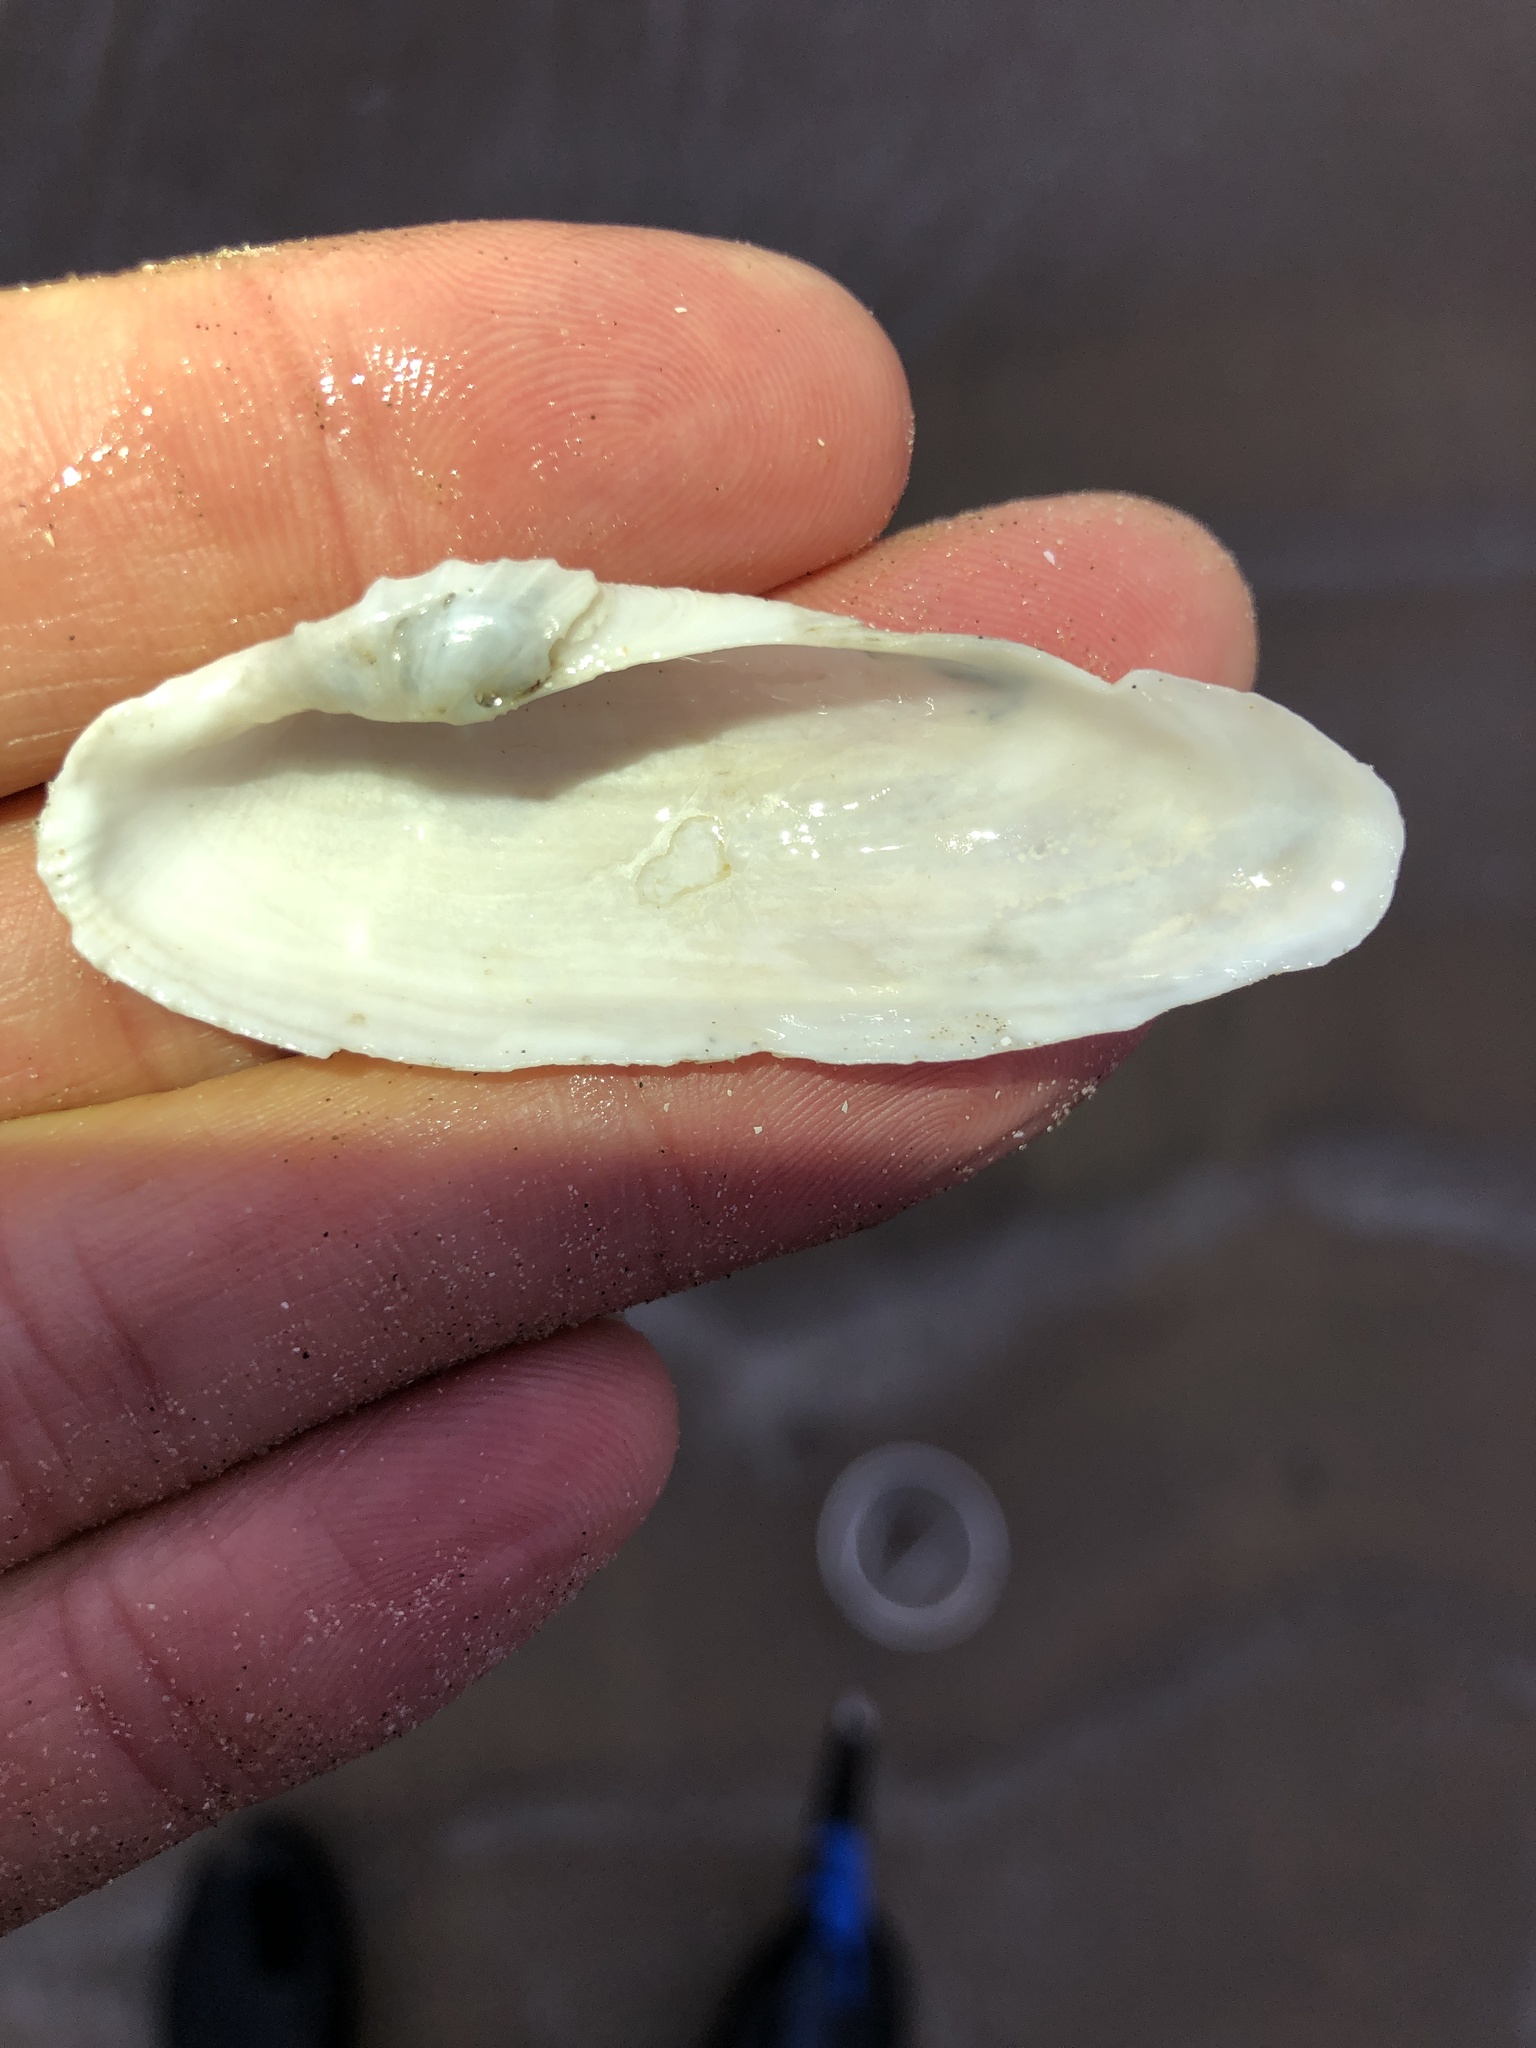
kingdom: Animalia
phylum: Mollusca
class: Bivalvia
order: Myida
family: Pholadidae
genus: Pholas
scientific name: Pholas campechiensis
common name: Campeche angel wing
